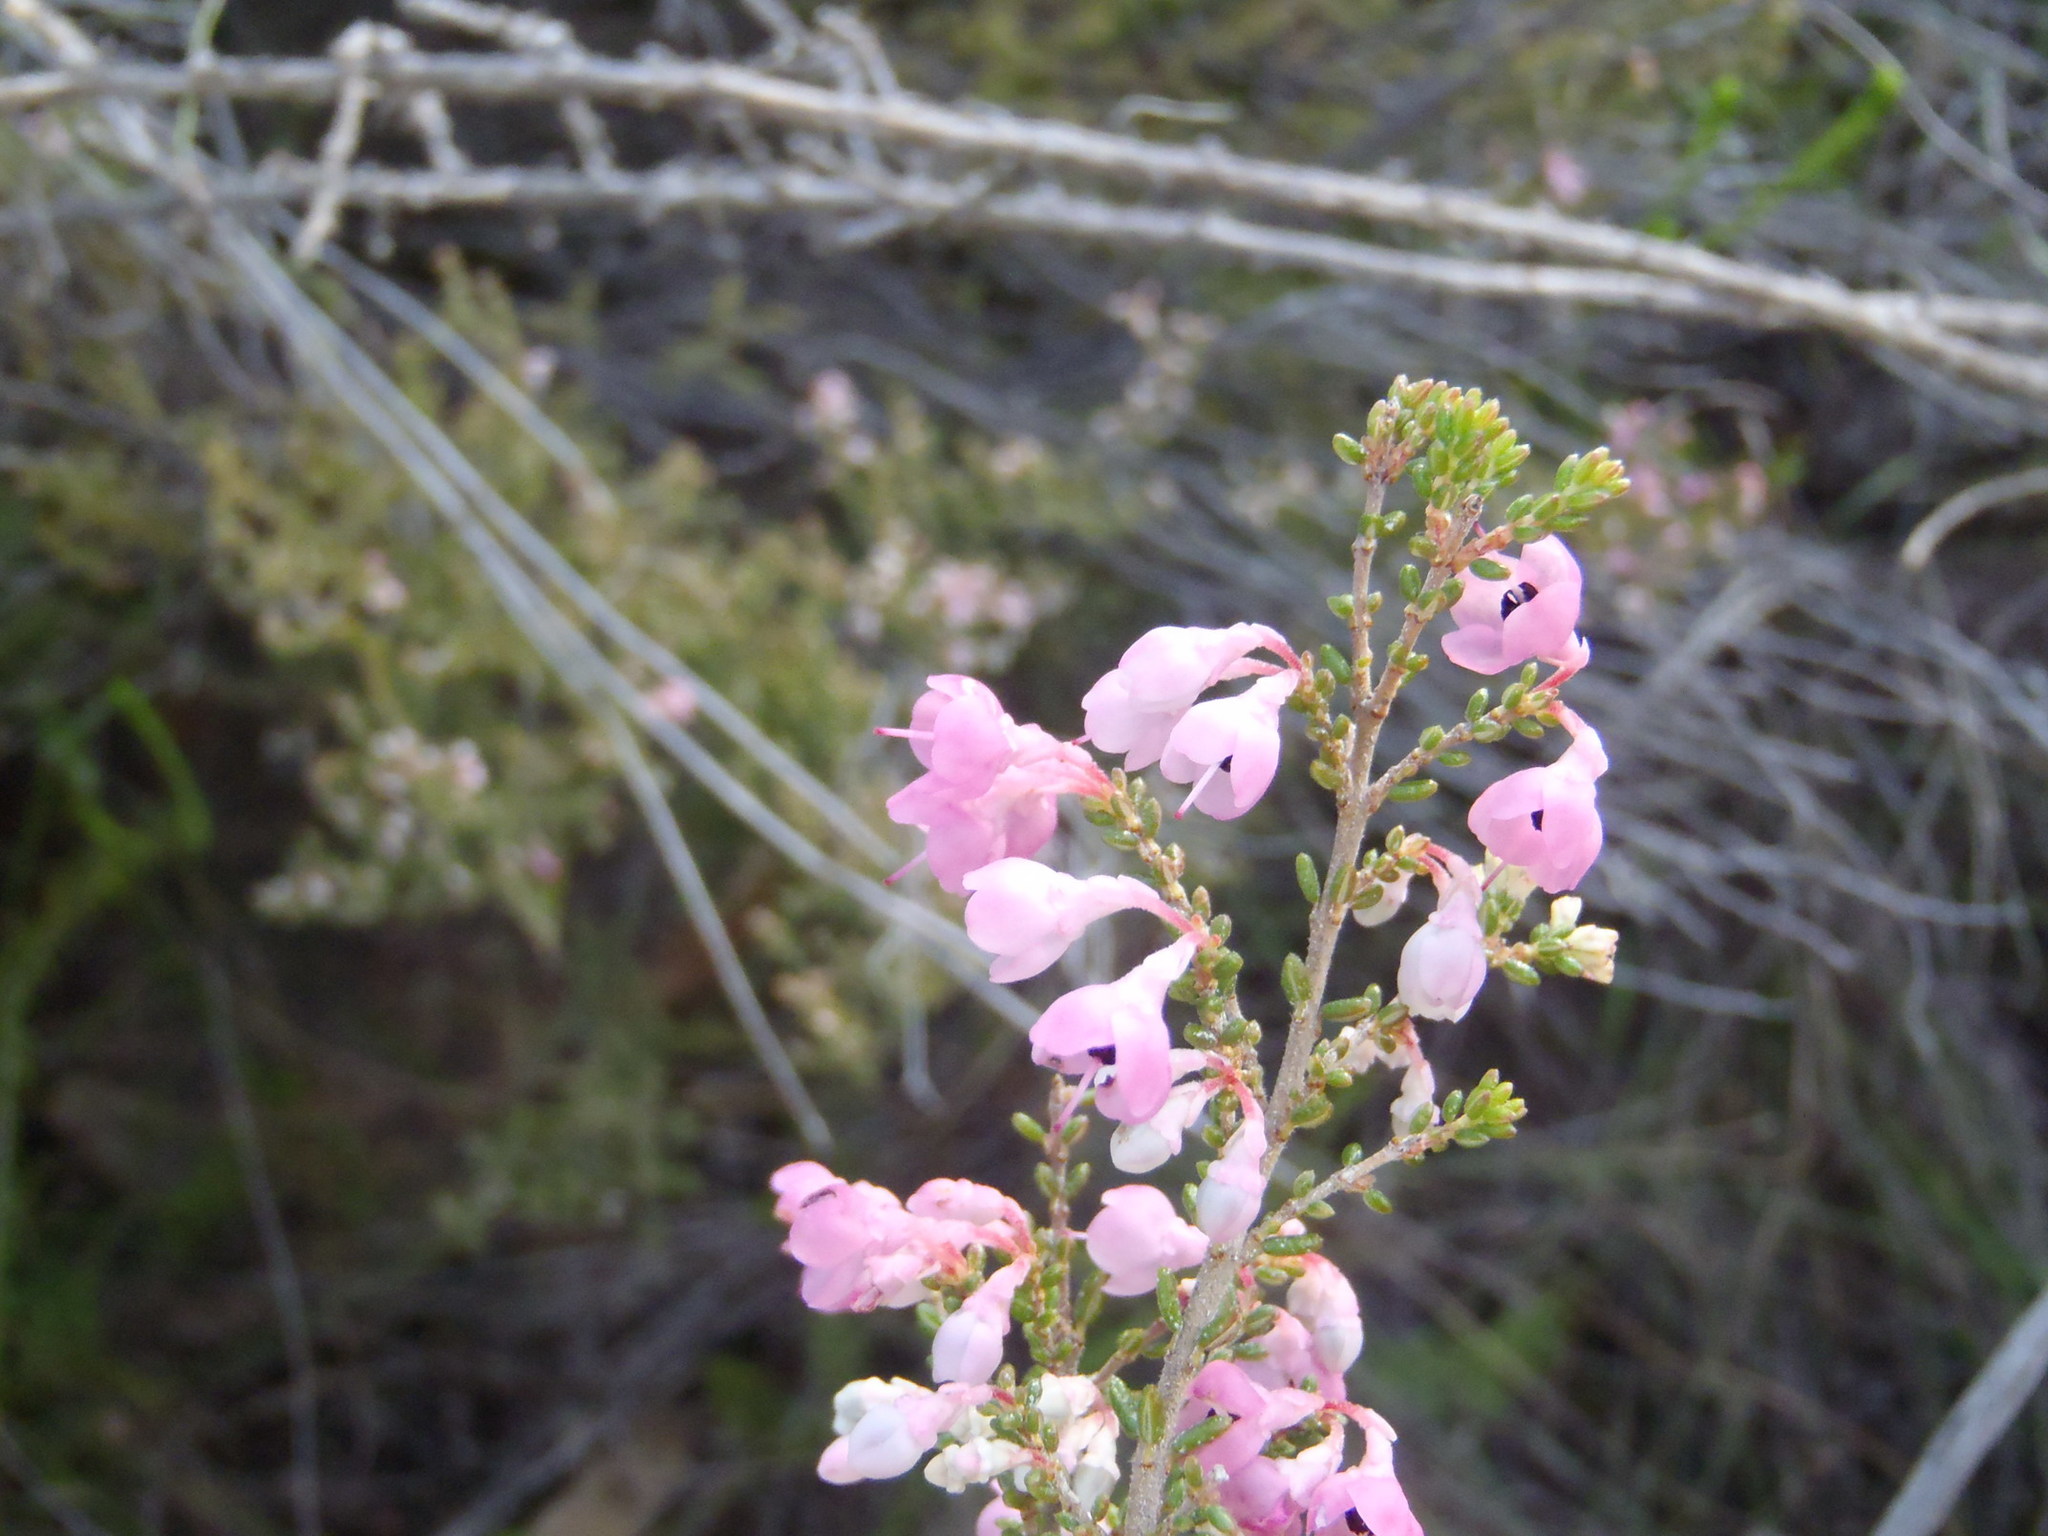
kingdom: Plantae
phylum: Tracheophyta
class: Magnoliopsida
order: Ericales
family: Ericaceae
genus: Erica
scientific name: Erica melanthera
